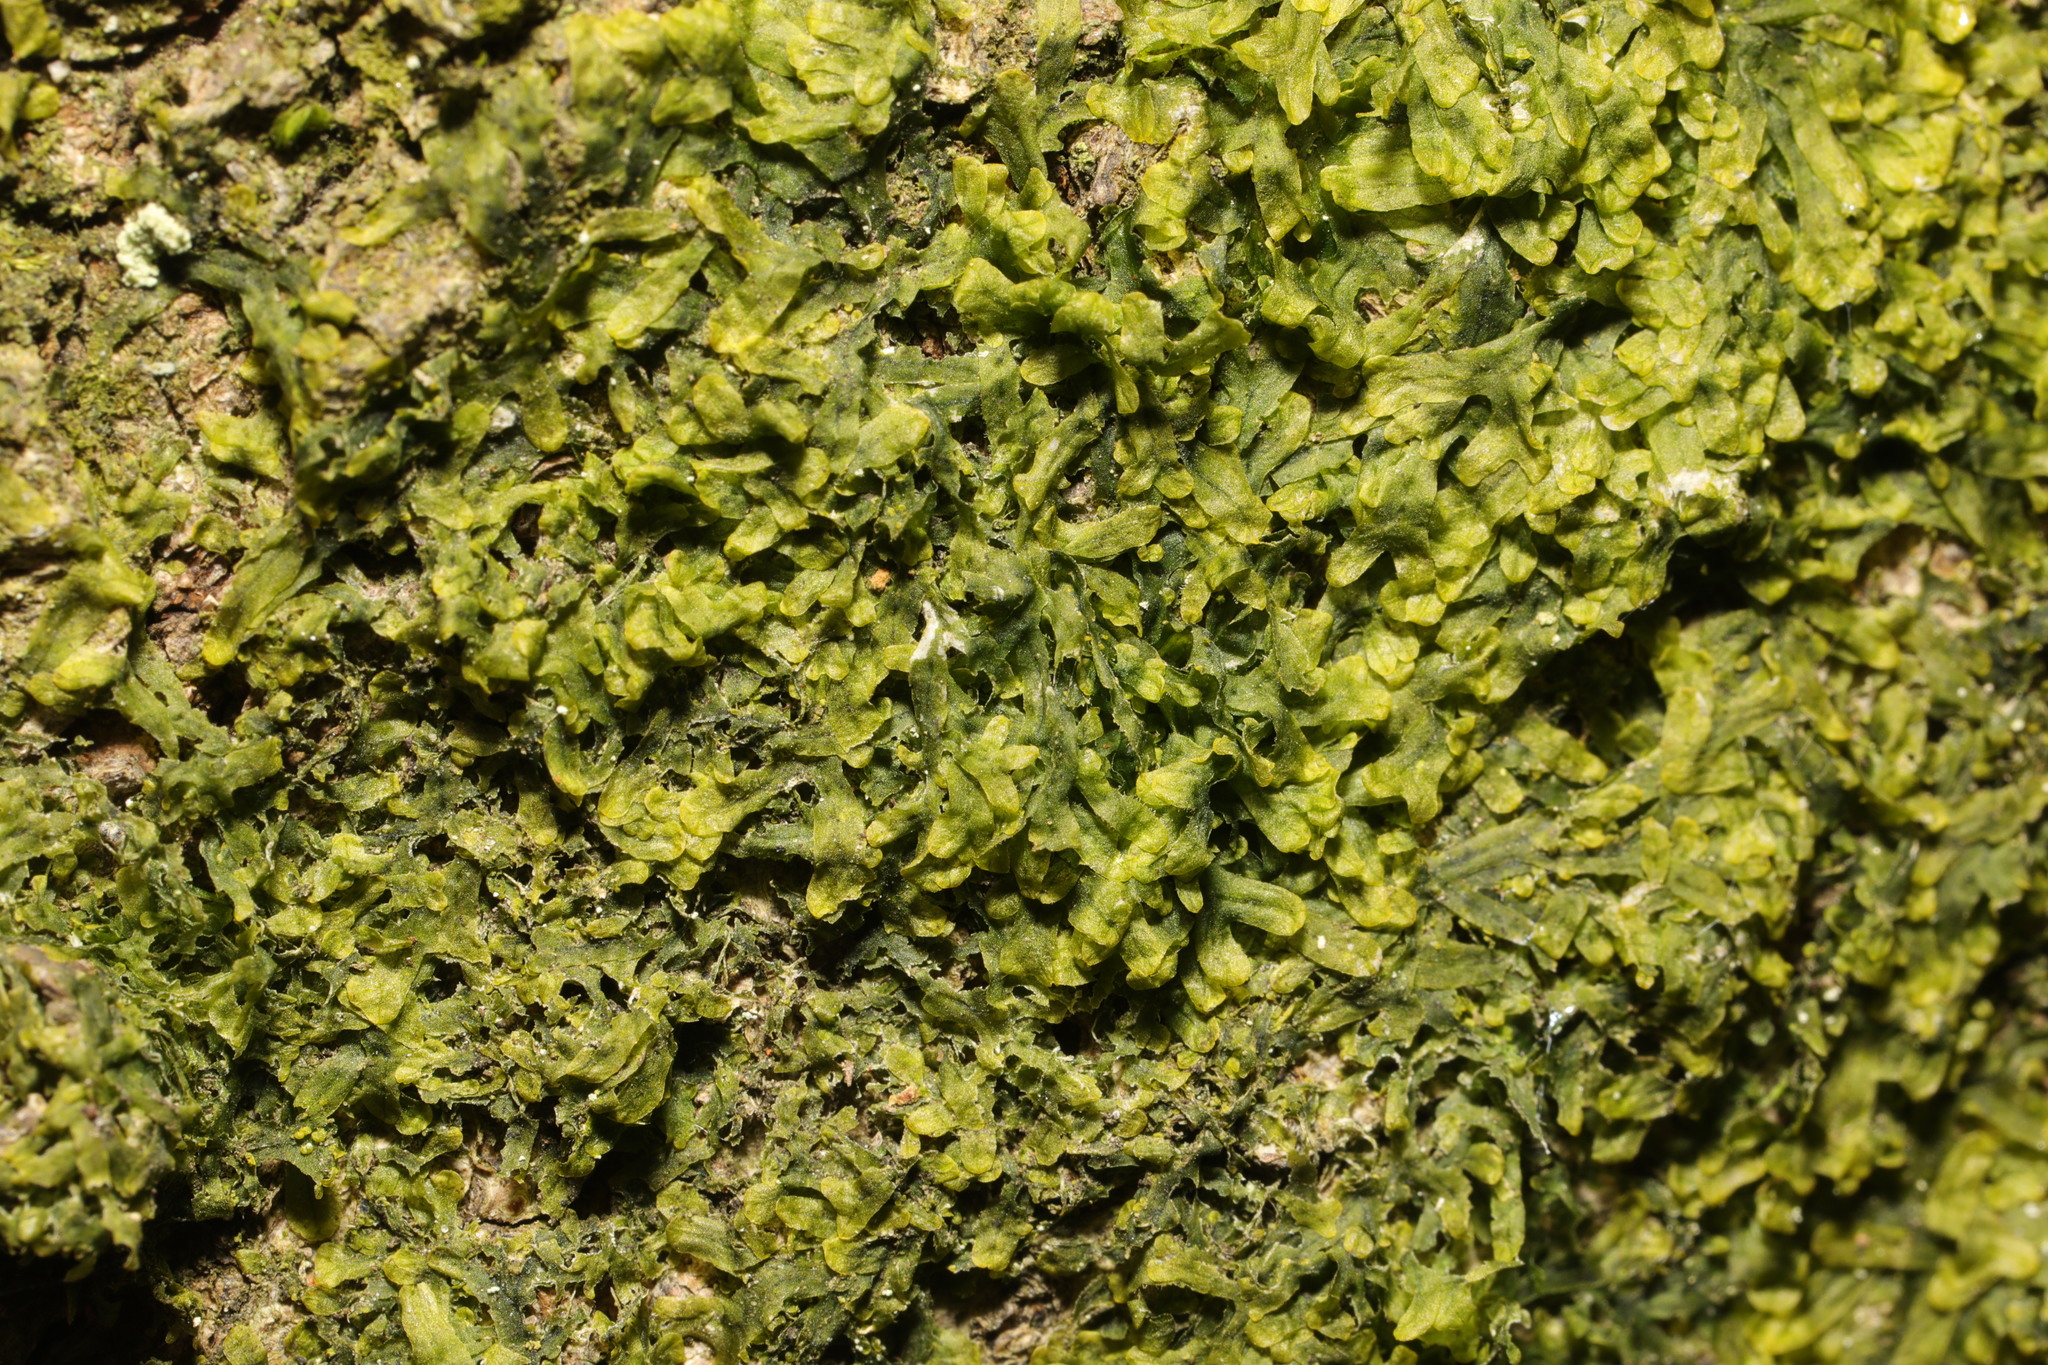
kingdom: Plantae
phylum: Marchantiophyta
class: Jungermanniopsida
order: Metzgeriales
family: Metzgeriaceae
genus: Metzgeria
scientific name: Metzgeria furcata
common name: Forked veilwort
